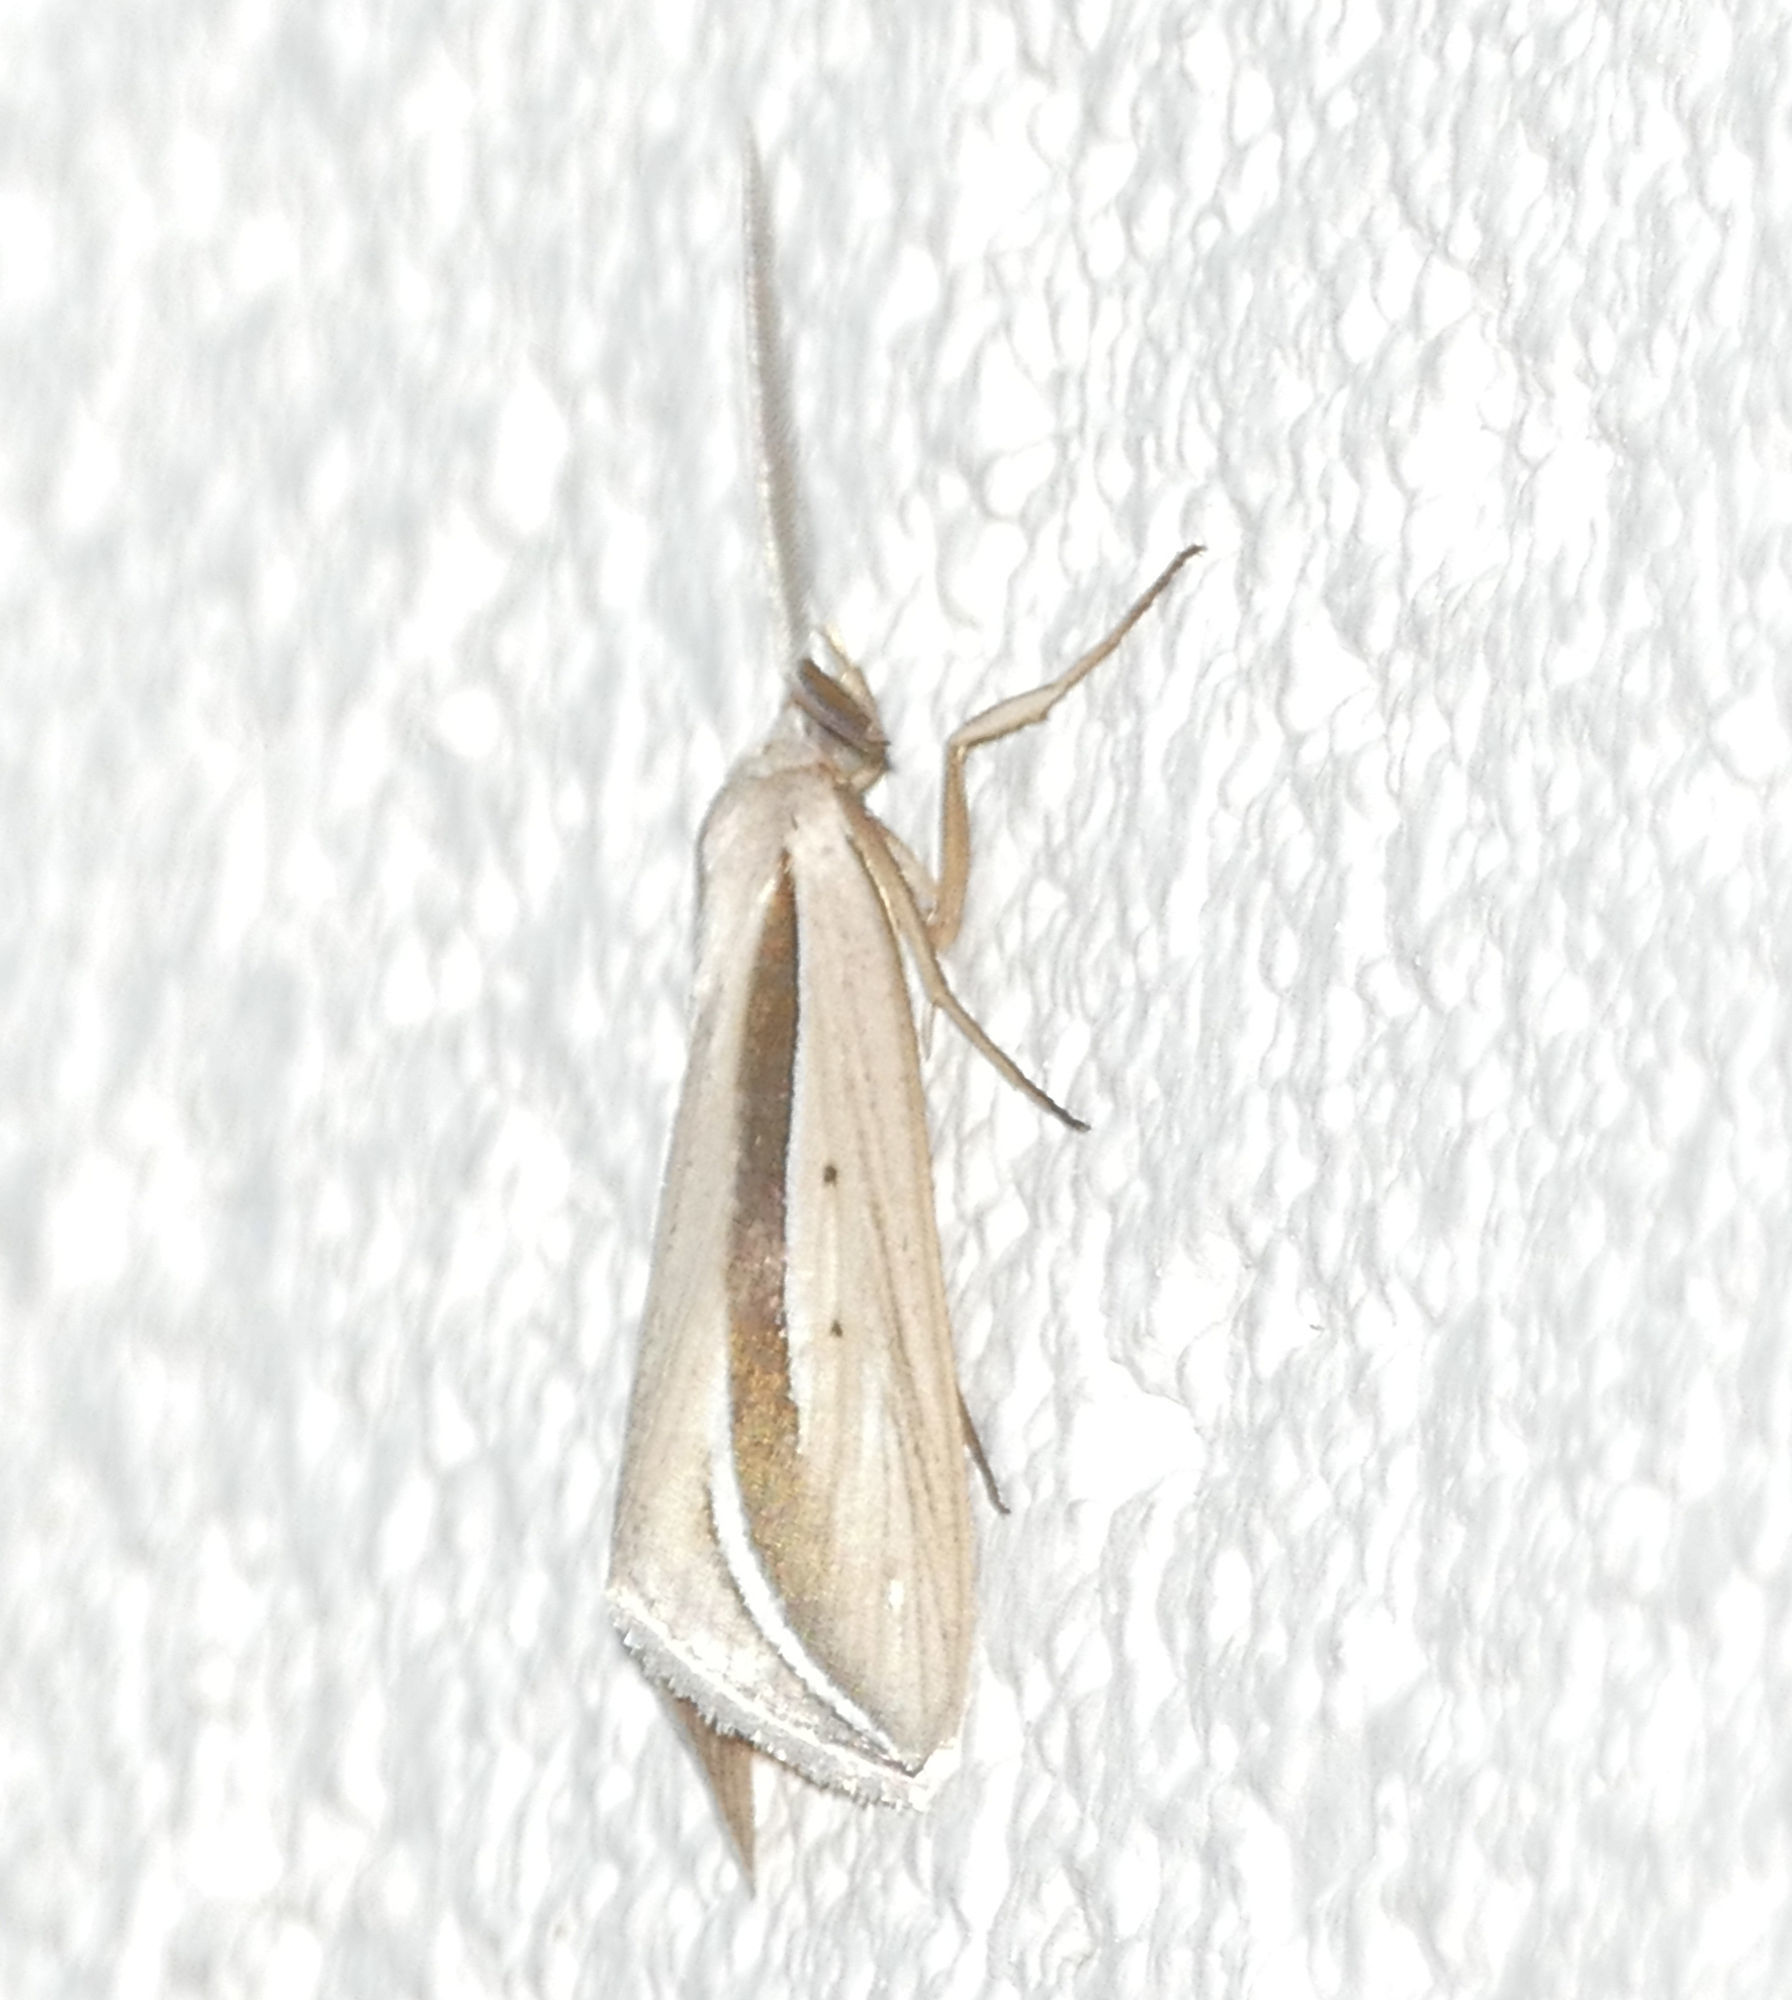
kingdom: Animalia
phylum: Arthropoda
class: Insecta
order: Lepidoptera
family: Erebidae
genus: Doryodes
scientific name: Doryodes latistriga
